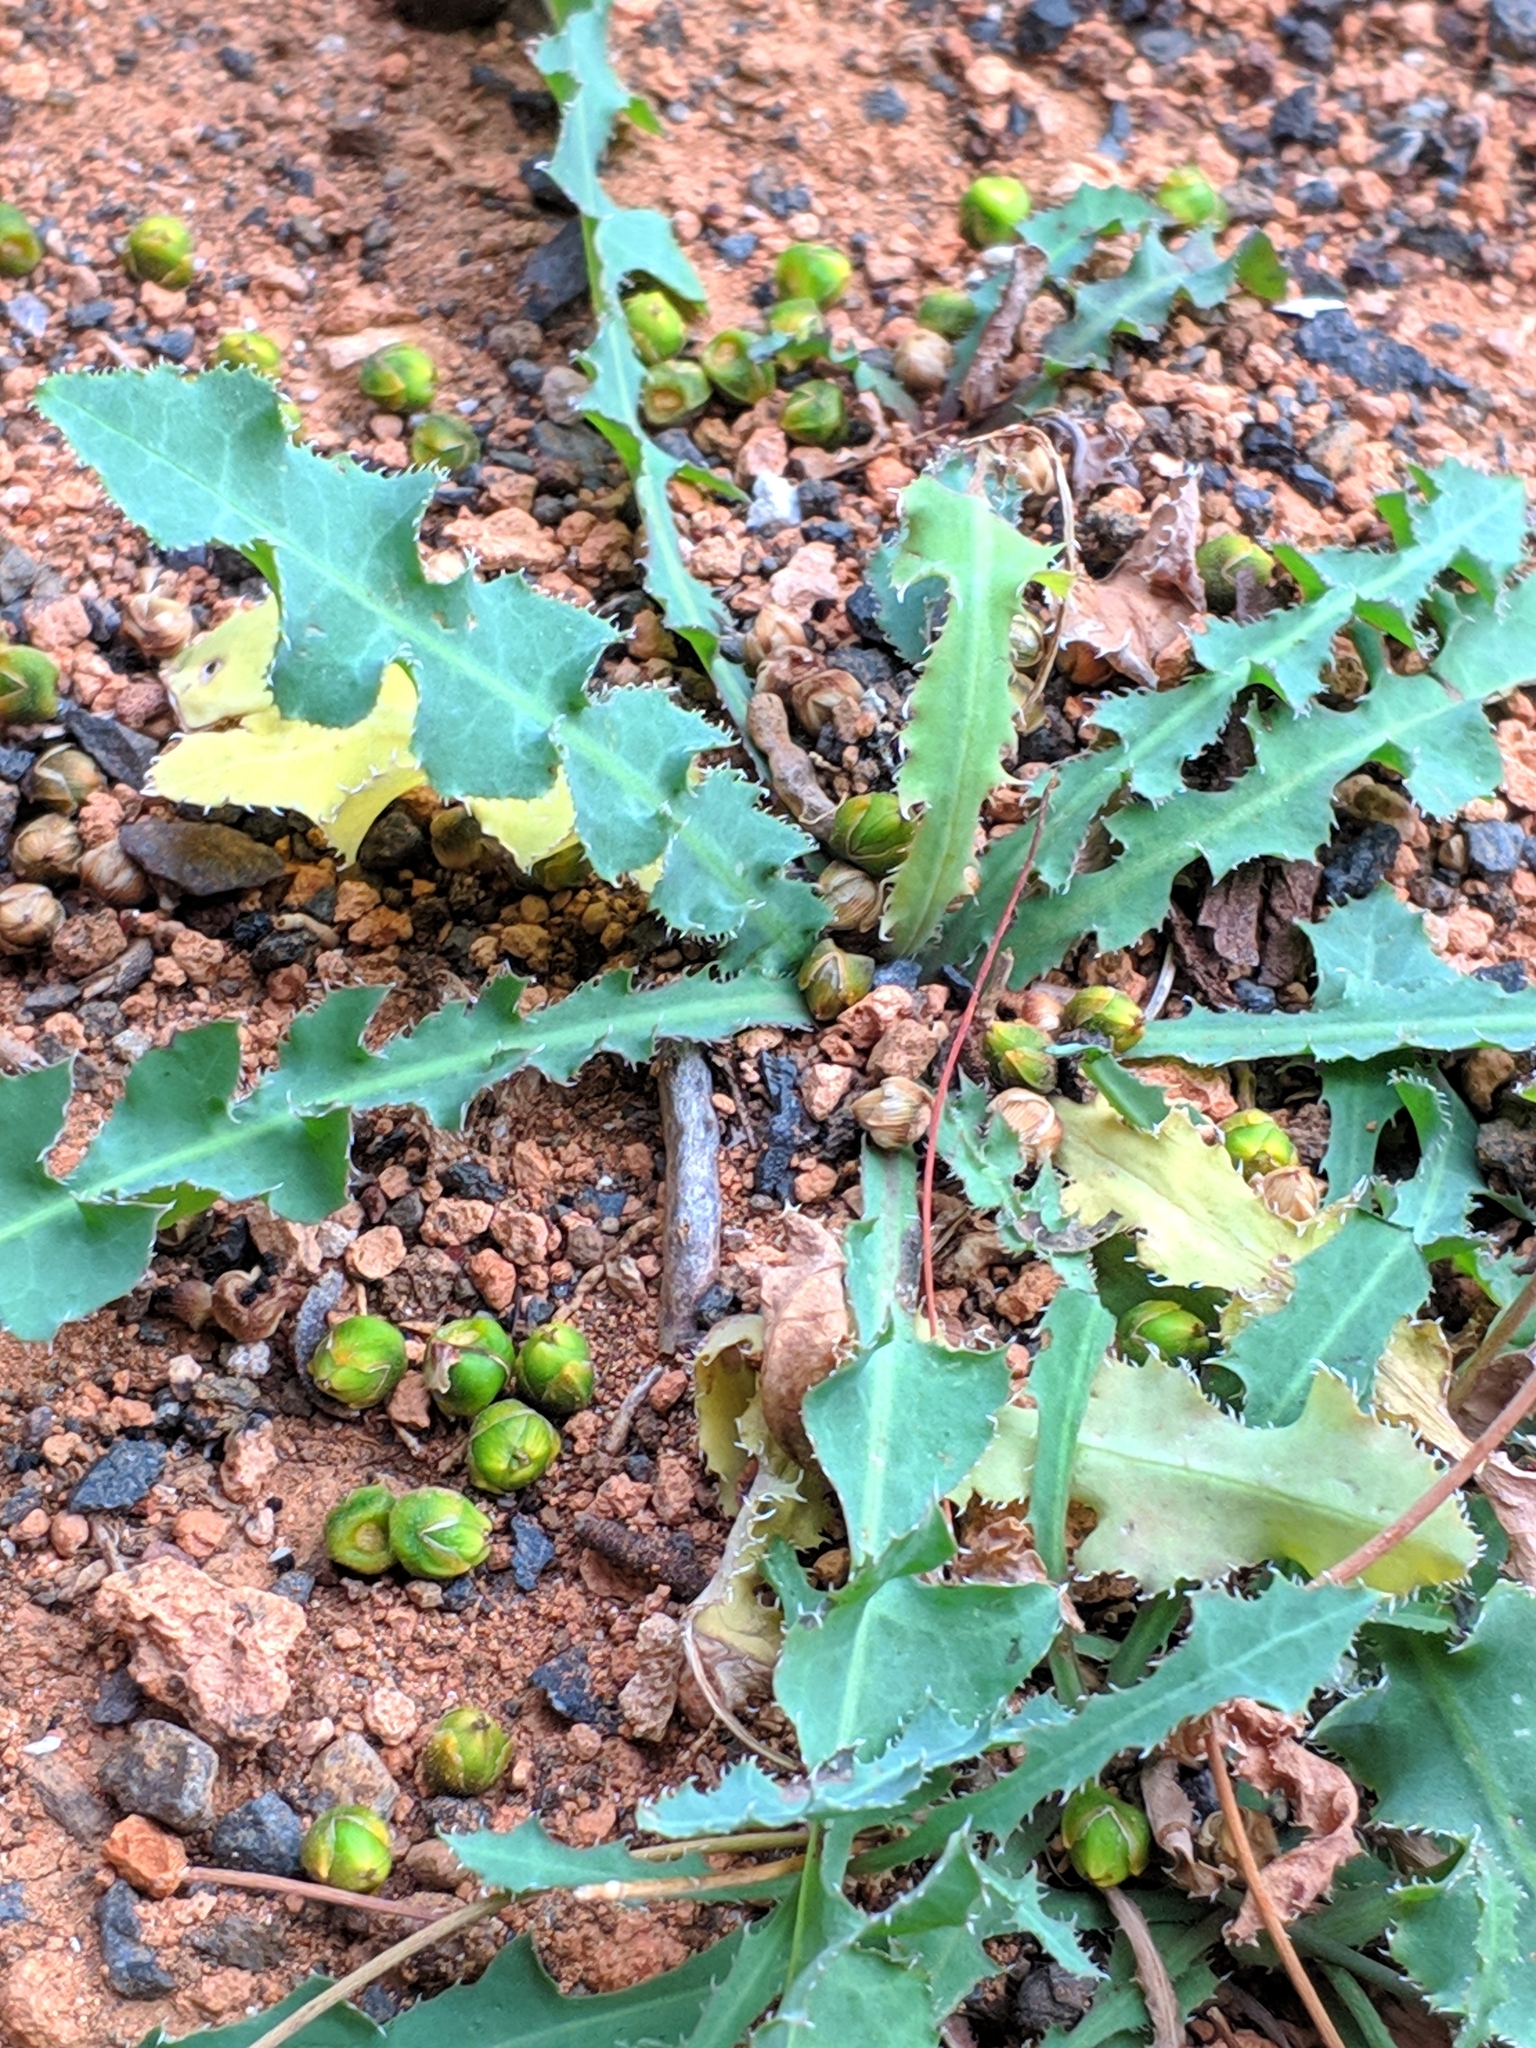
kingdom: Plantae
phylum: Tracheophyta
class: Magnoliopsida
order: Asterales
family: Asteraceae
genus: Launaea
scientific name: Launaea nudicaulis
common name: Naked launaea
